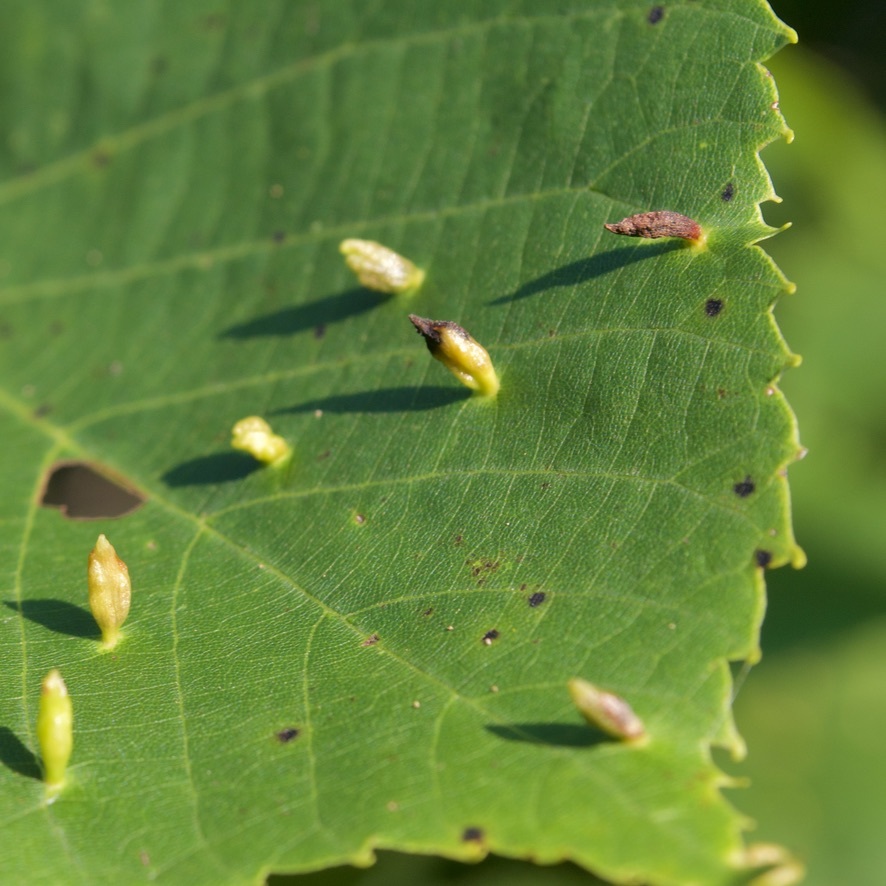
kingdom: Animalia
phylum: Arthropoda
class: Arachnida
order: Trombidiformes
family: Eriophyidae
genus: Eriophyes
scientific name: Eriophyes tiliae
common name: Red nail gall mite
